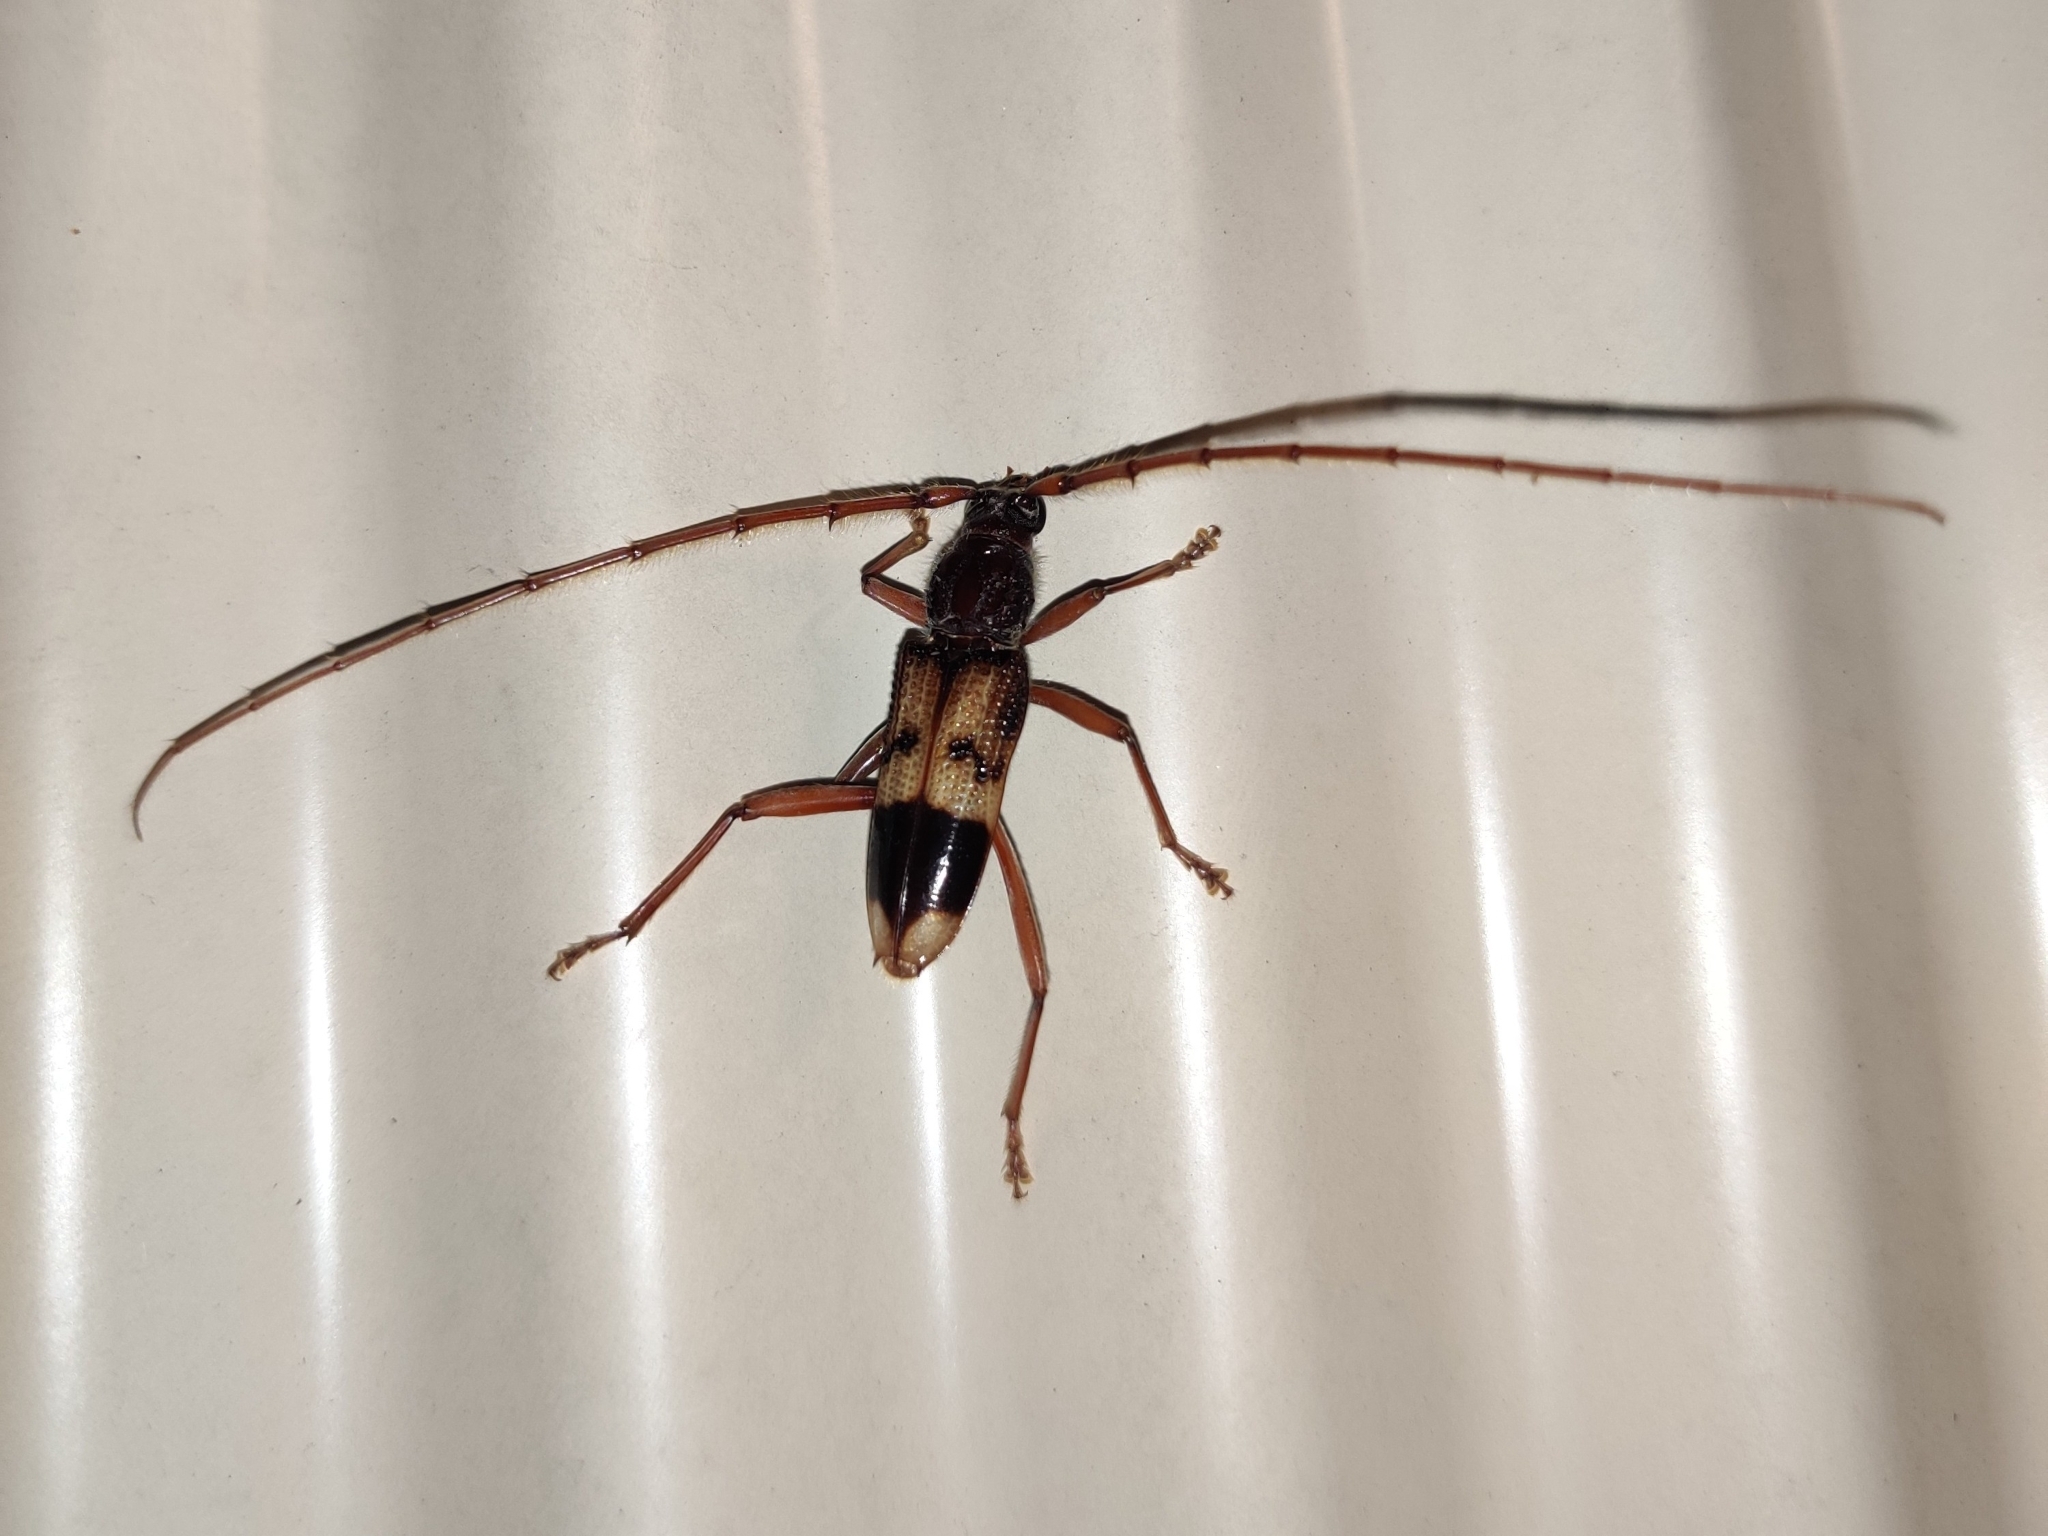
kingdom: Animalia
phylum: Arthropoda
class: Insecta
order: Coleoptera
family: Cerambycidae
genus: Phoracantha
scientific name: Phoracantha recurva
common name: Eucalyptus longhorned borer
